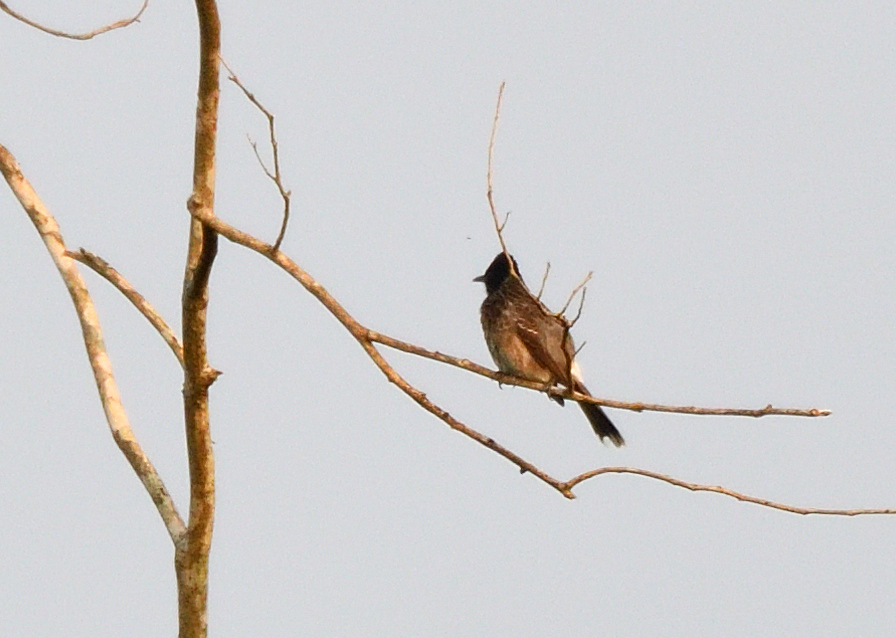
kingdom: Animalia
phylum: Chordata
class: Aves
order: Passeriformes
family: Pycnonotidae
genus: Pycnonotus
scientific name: Pycnonotus cafer
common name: Red-vented bulbul
